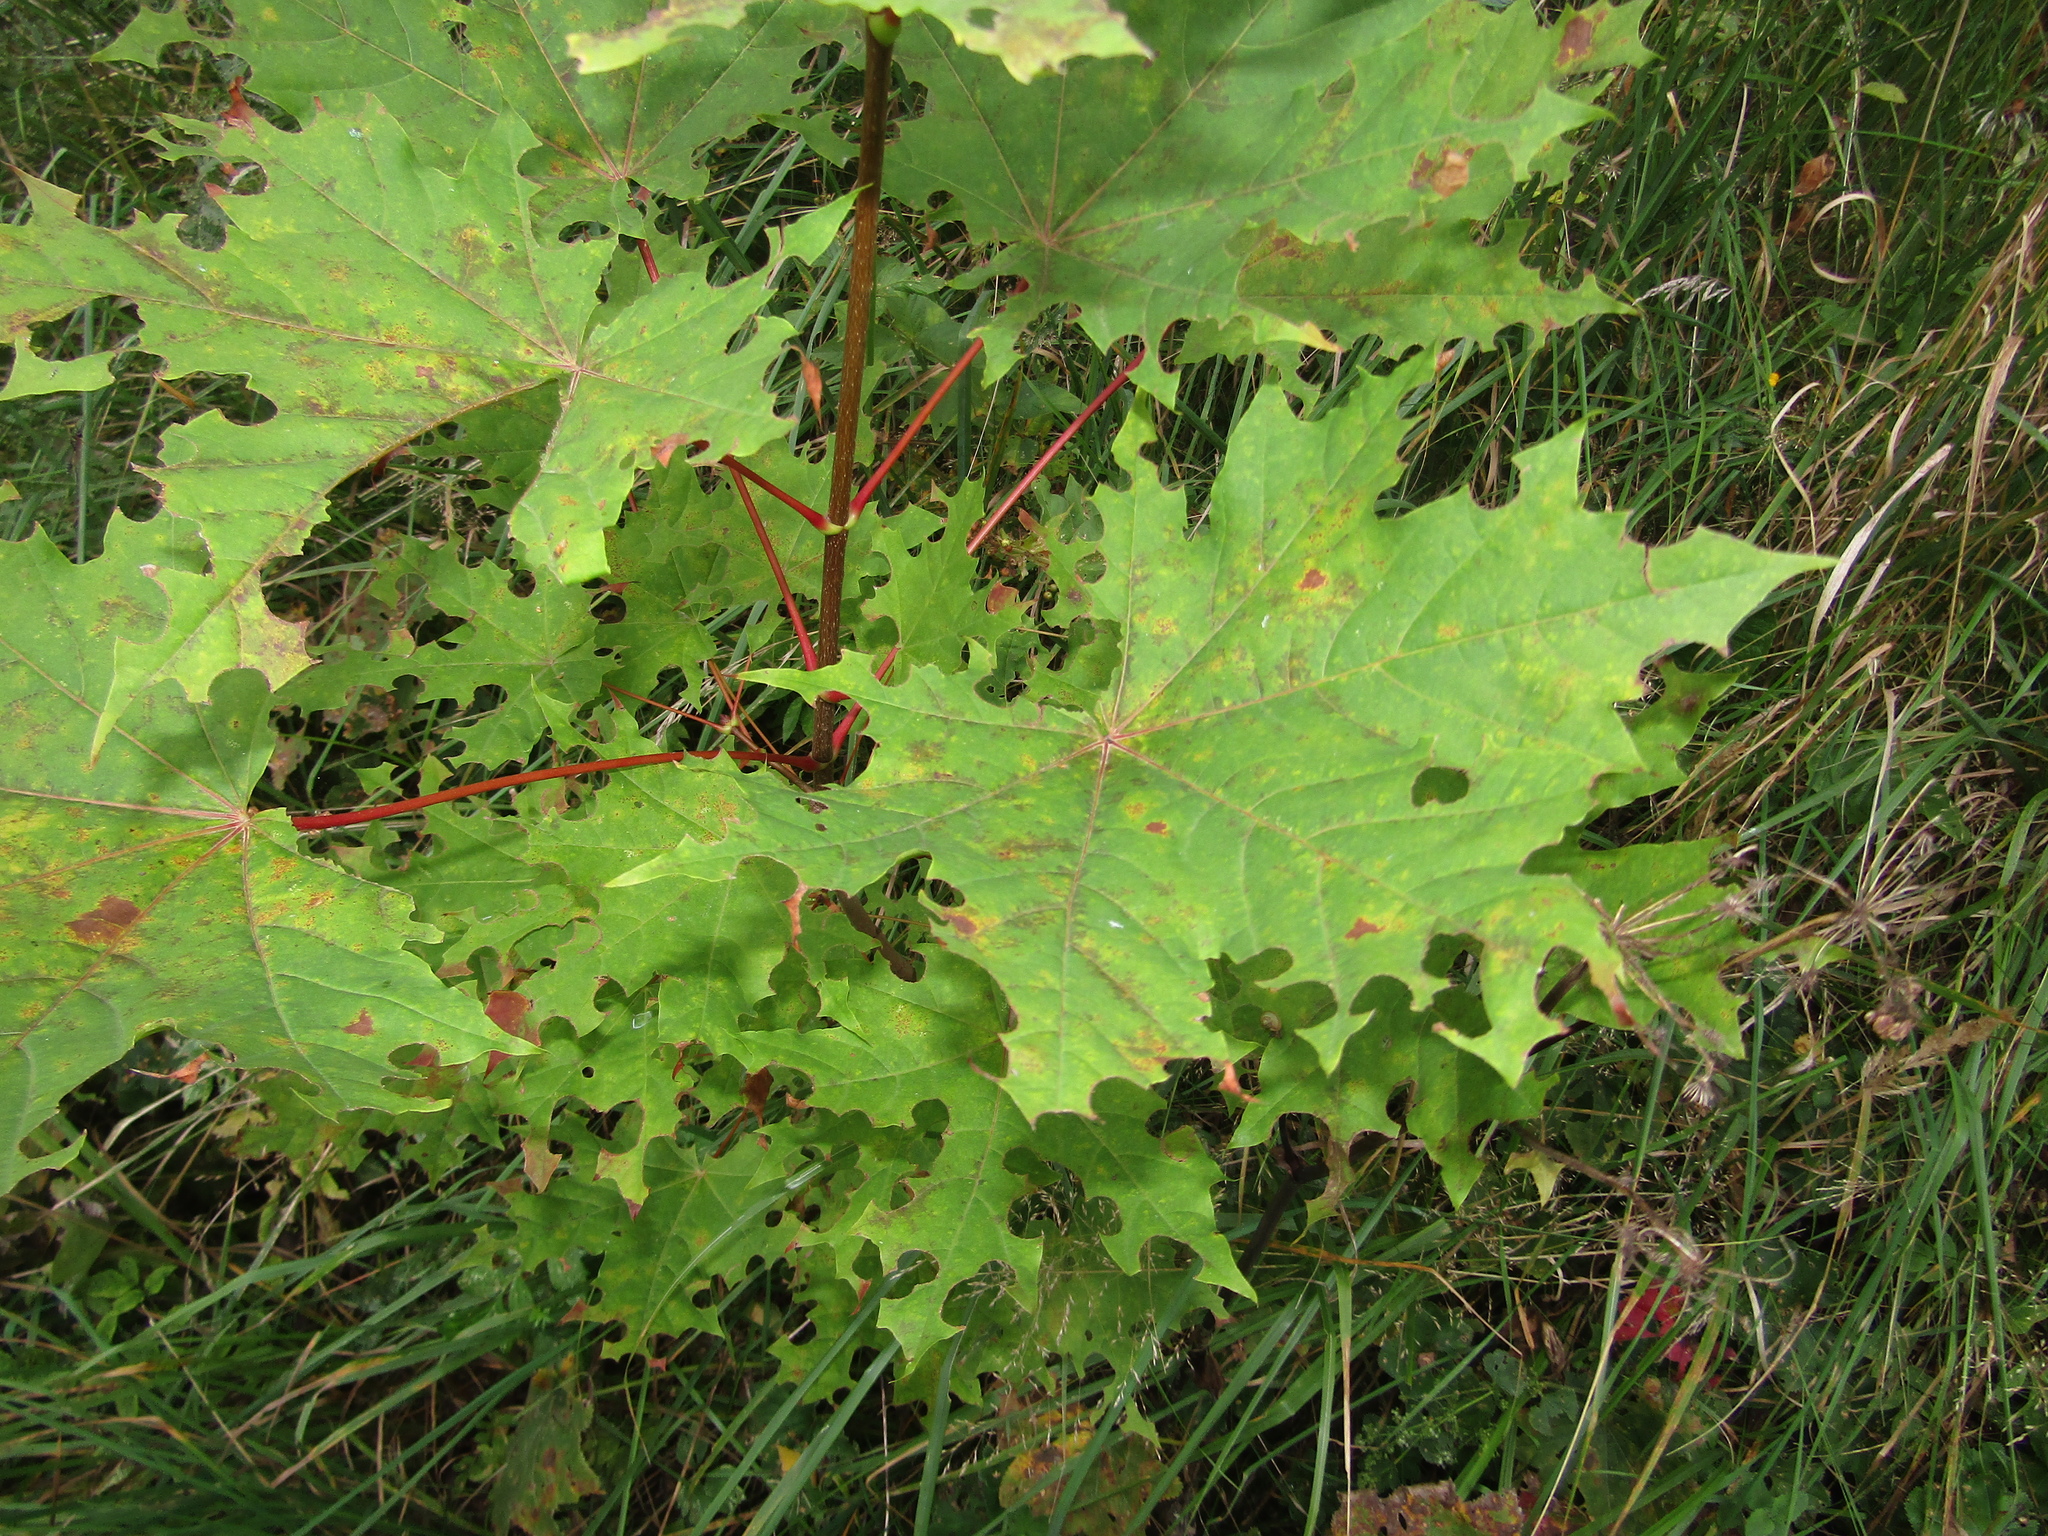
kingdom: Plantae
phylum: Tracheophyta
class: Magnoliopsida
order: Sapindales
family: Sapindaceae
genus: Acer
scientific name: Acer platanoides
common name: Norway maple
